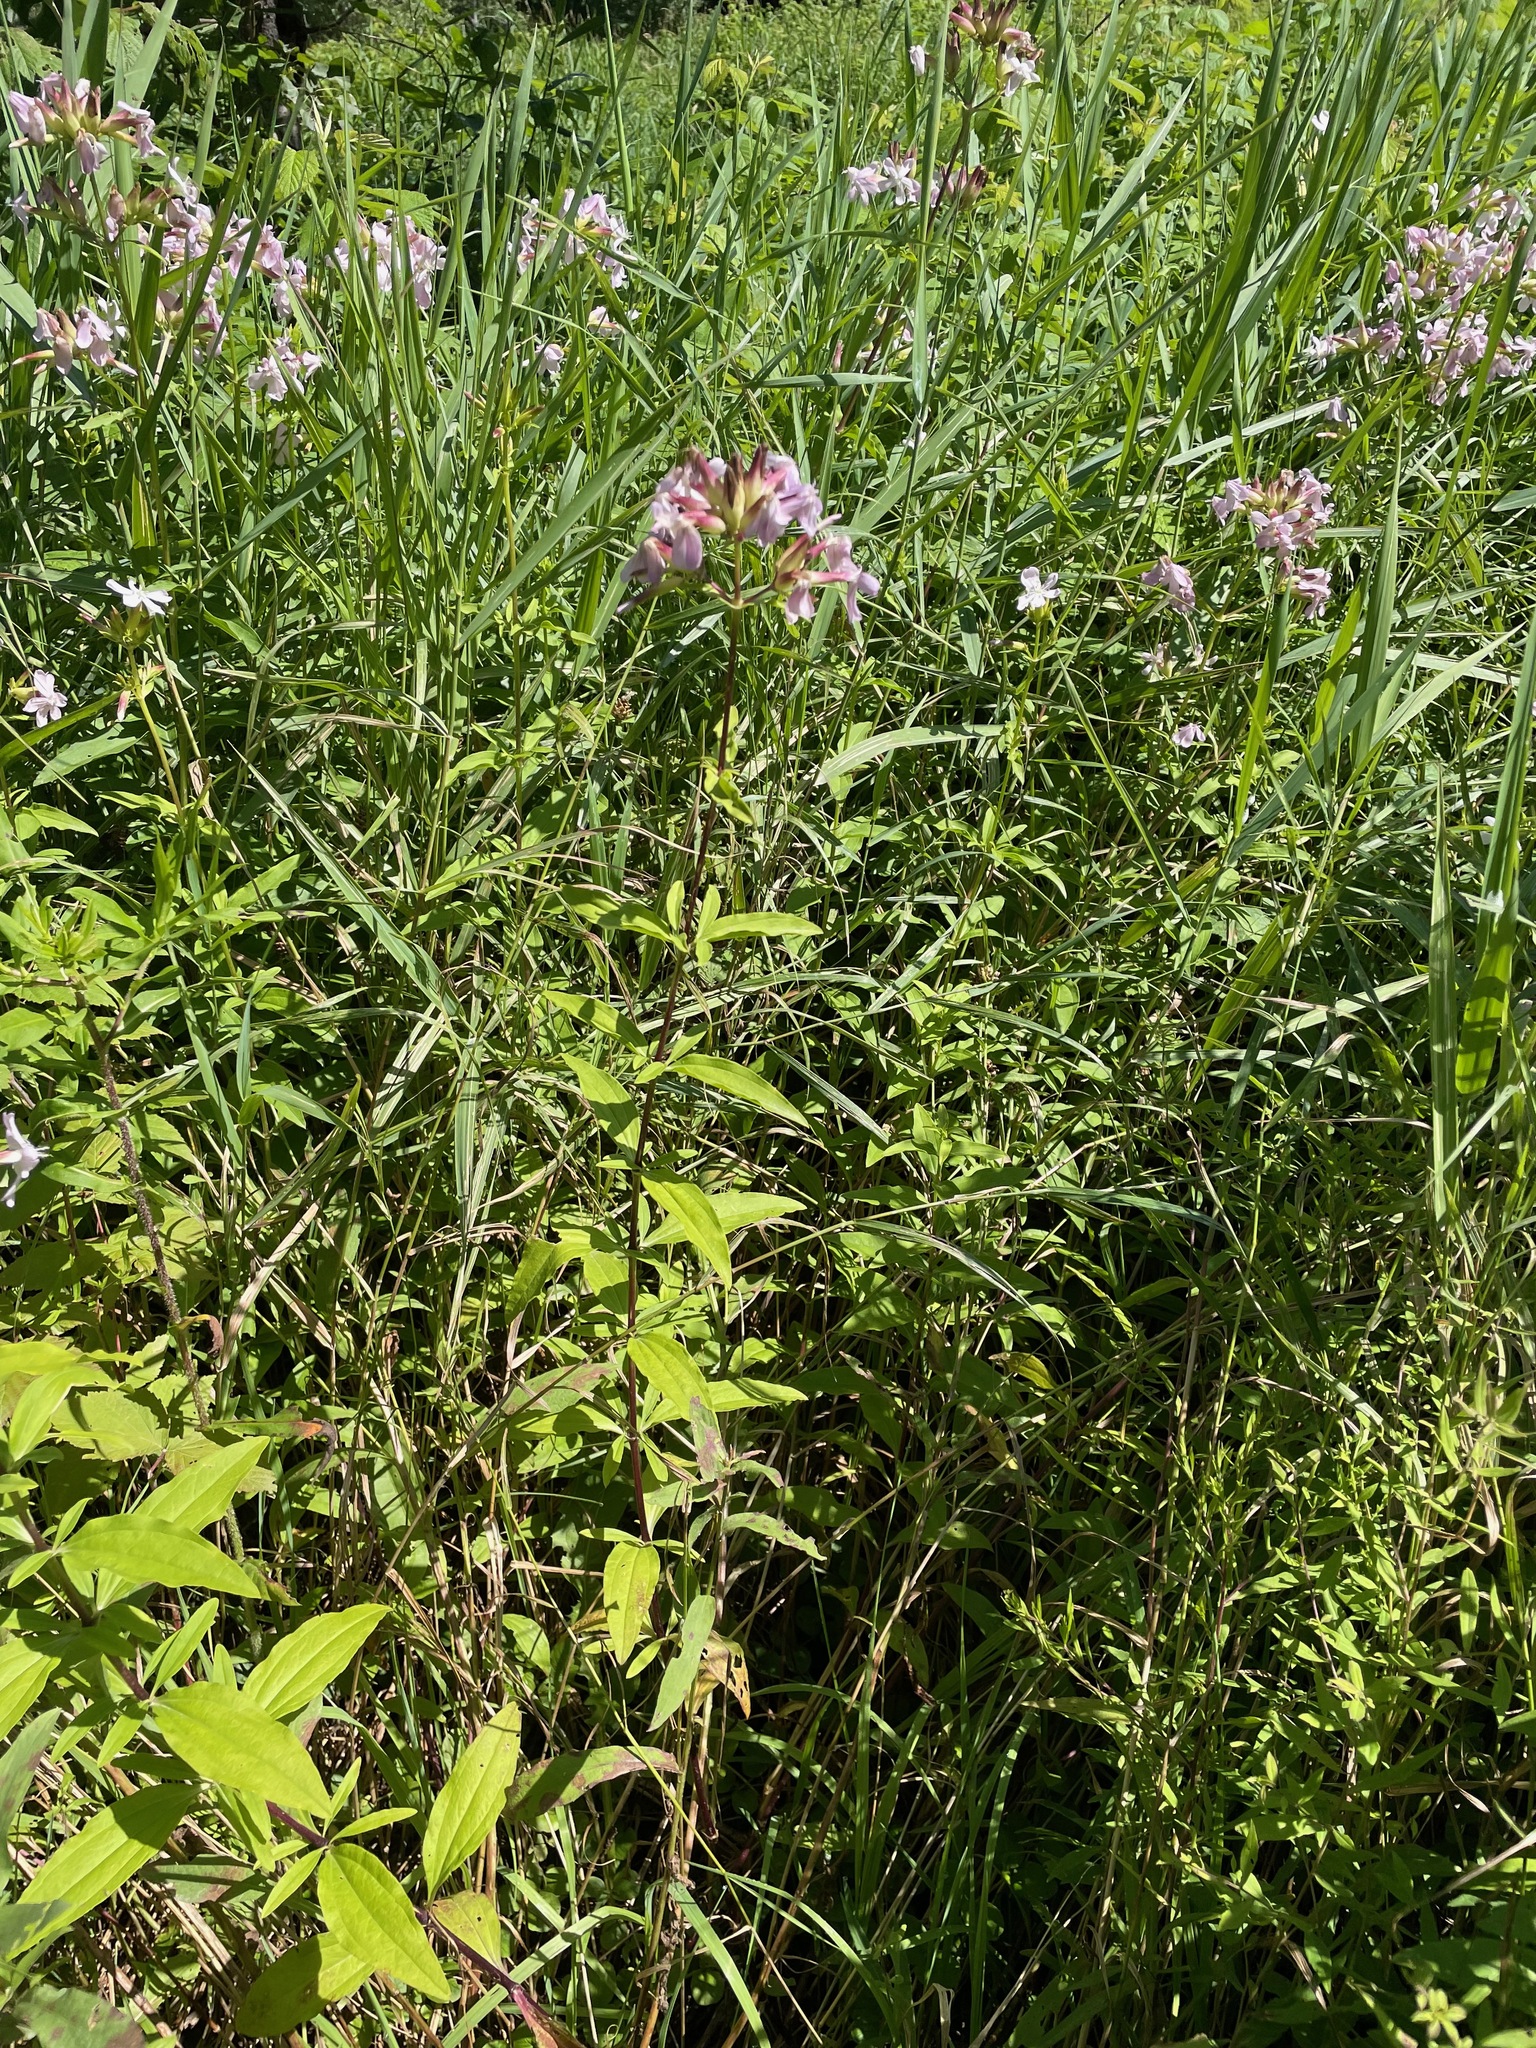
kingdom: Plantae
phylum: Tracheophyta
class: Magnoliopsida
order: Caryophyllales
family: Caryophyllaceae
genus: Saponaria
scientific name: Saponaria officinalis
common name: Soapwort
